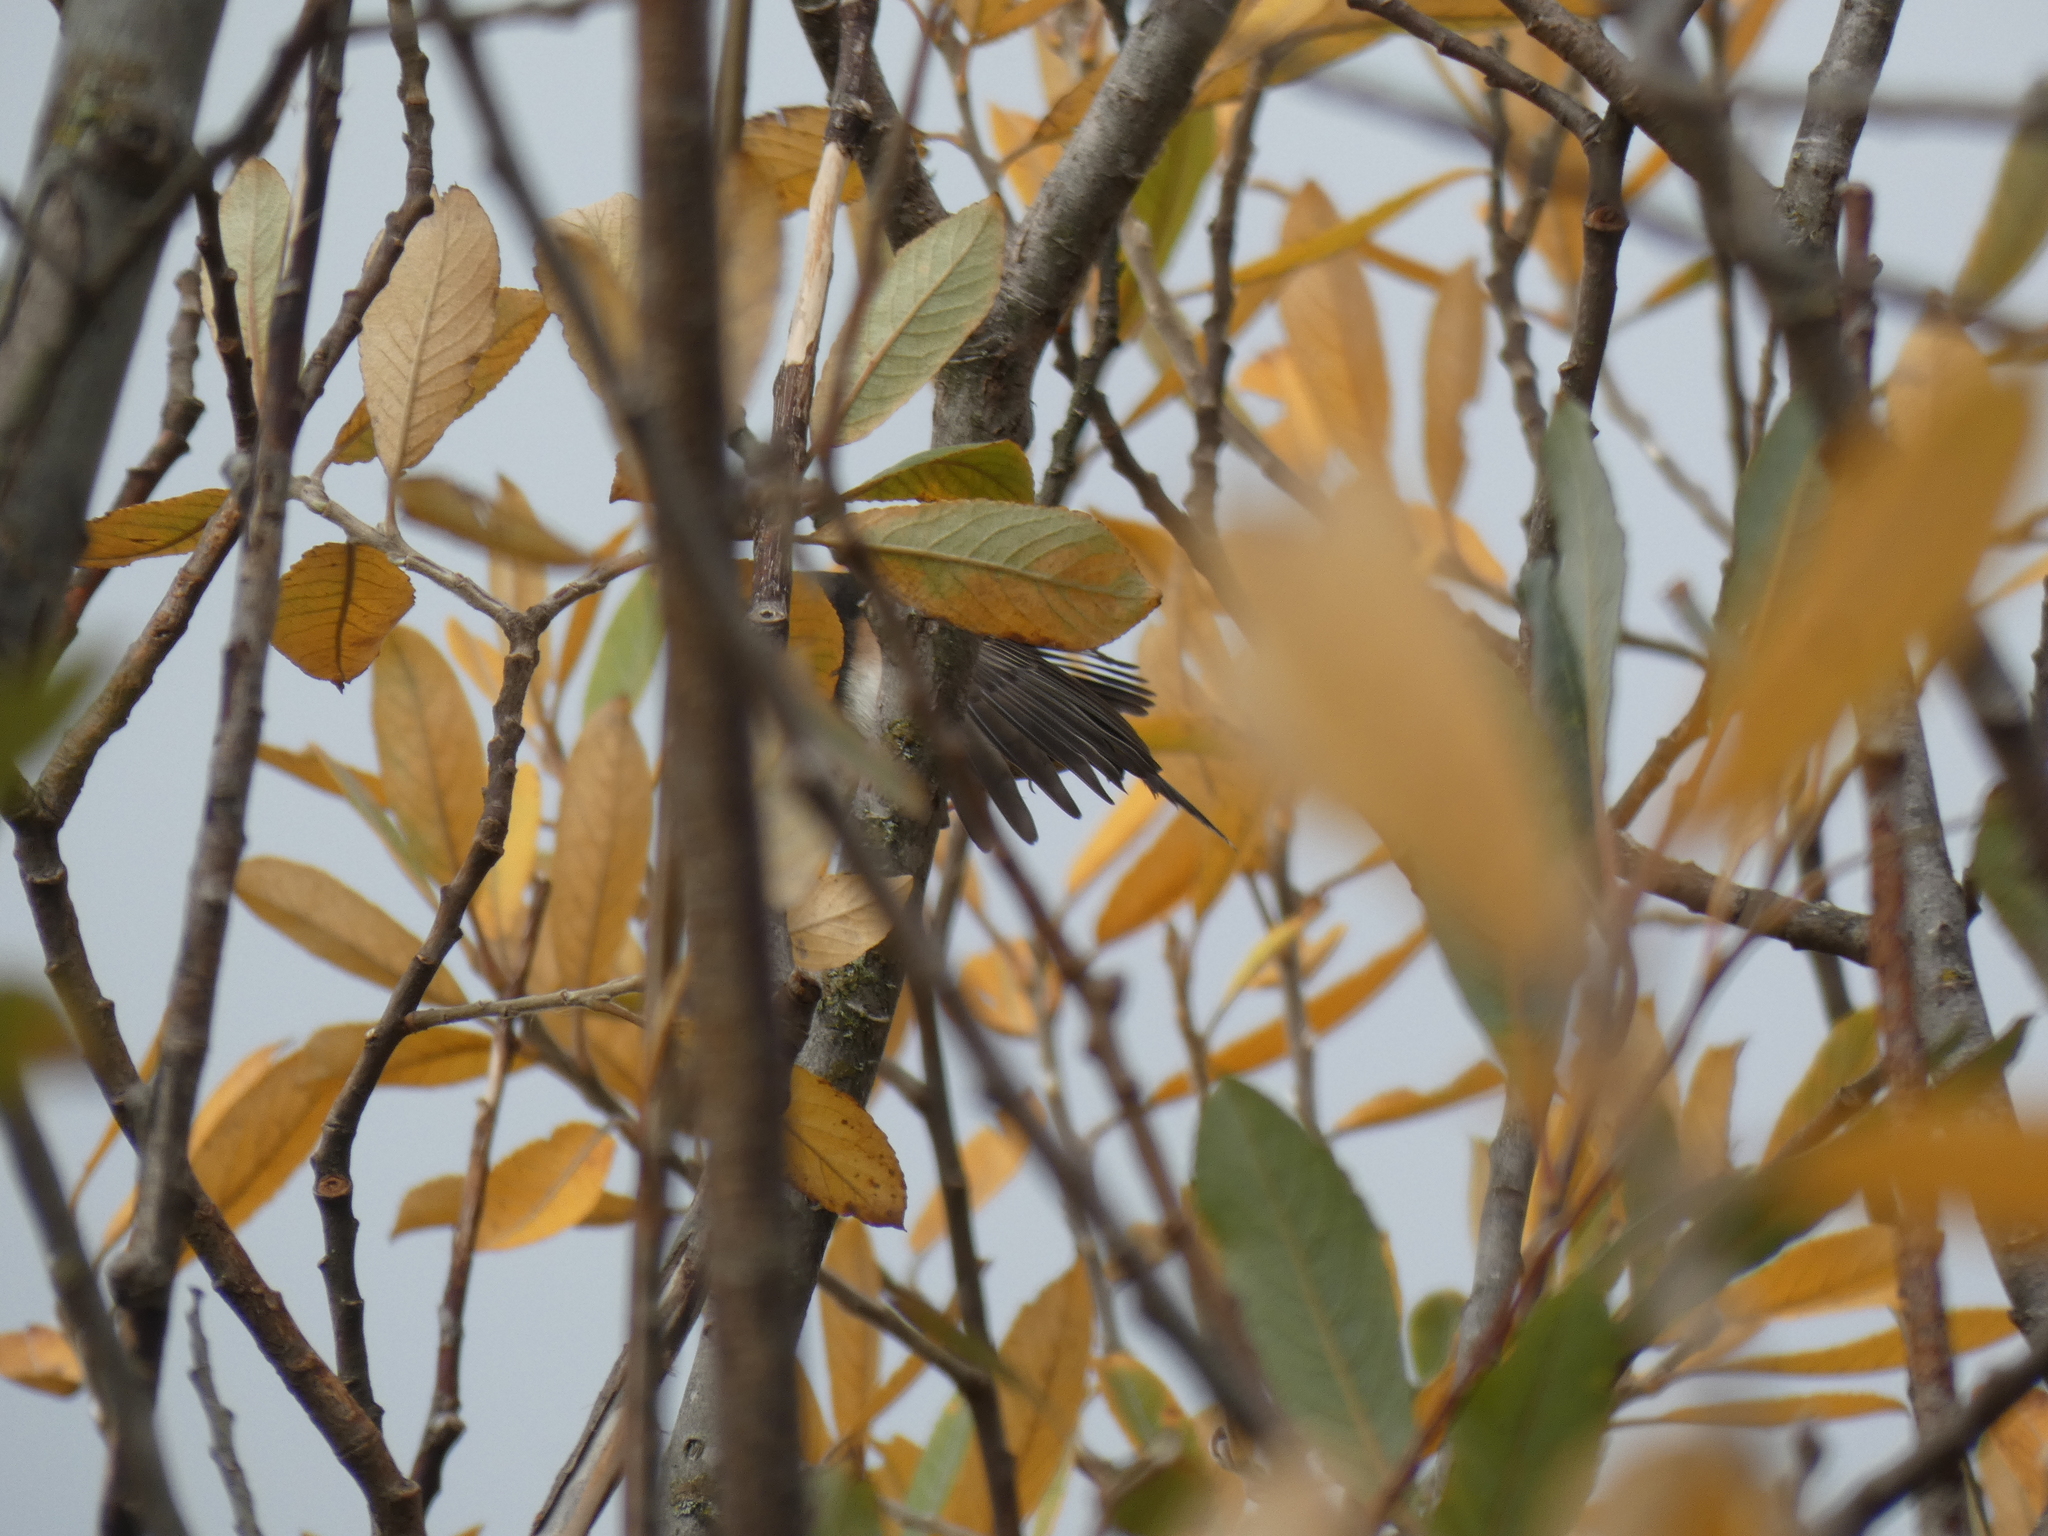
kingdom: Animalia
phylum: Chordata
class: Aves
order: Passeriformes
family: Passerellidae
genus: Junco
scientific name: Junco hyemalis
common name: Dark-eyed junco
